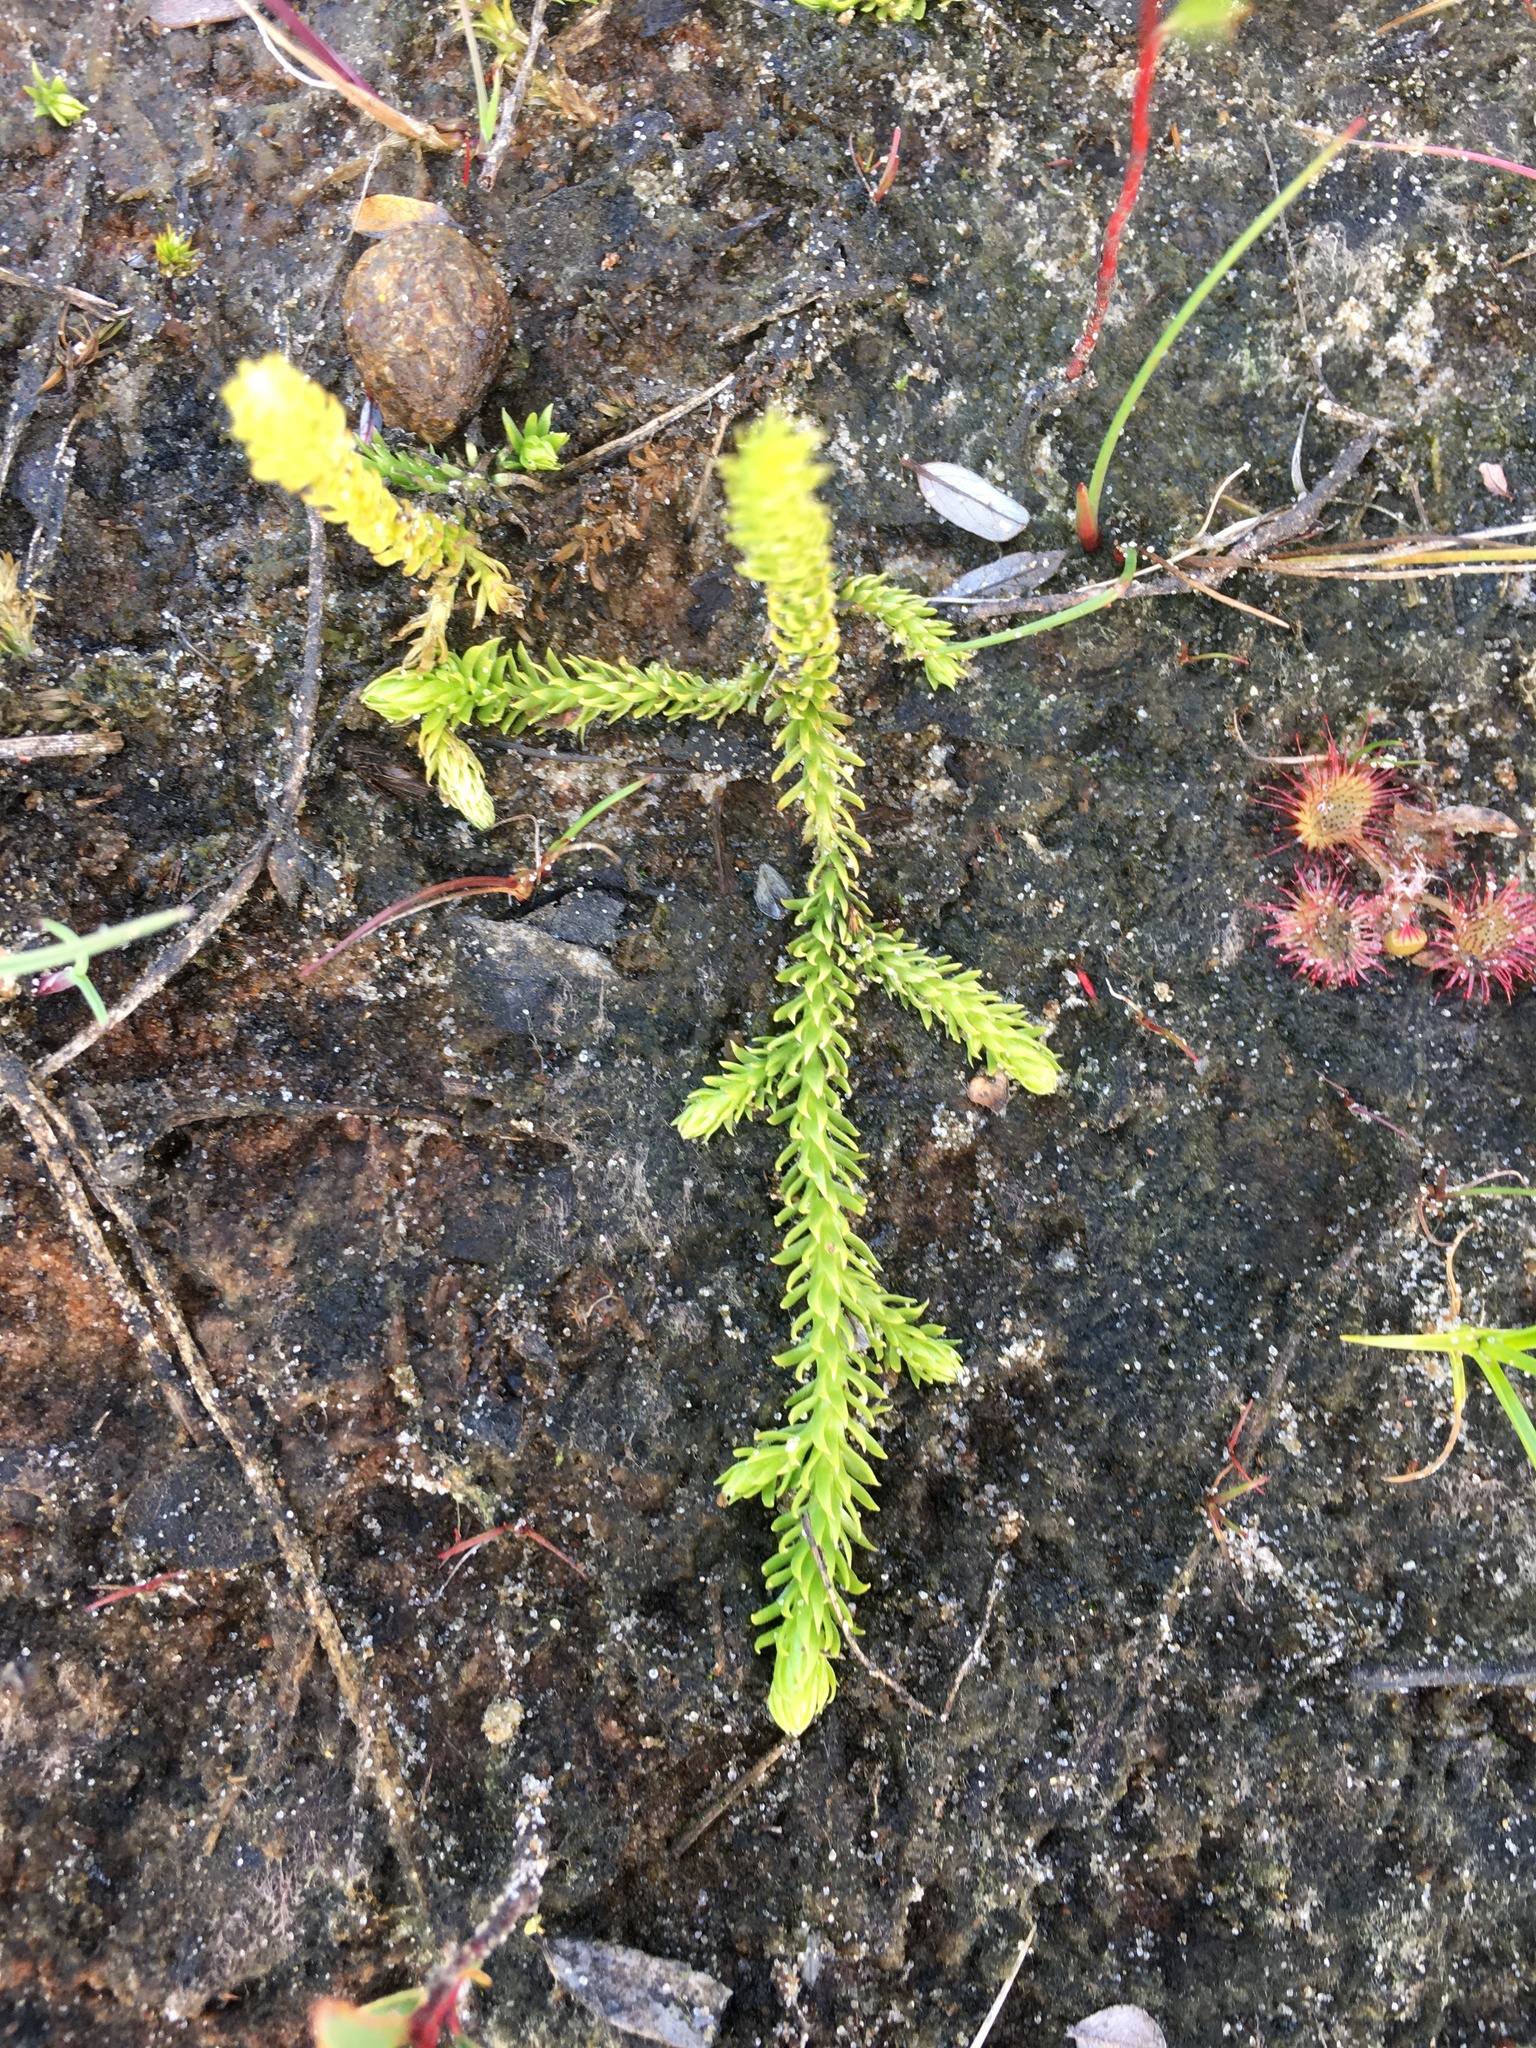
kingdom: Plantae
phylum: Tracheophyta
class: Lycopodiopsida
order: Lycopodiales
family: Lycopodiaceae
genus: Lycopodiella
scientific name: Lycopodiella inundata
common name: Marsh clubmoss
